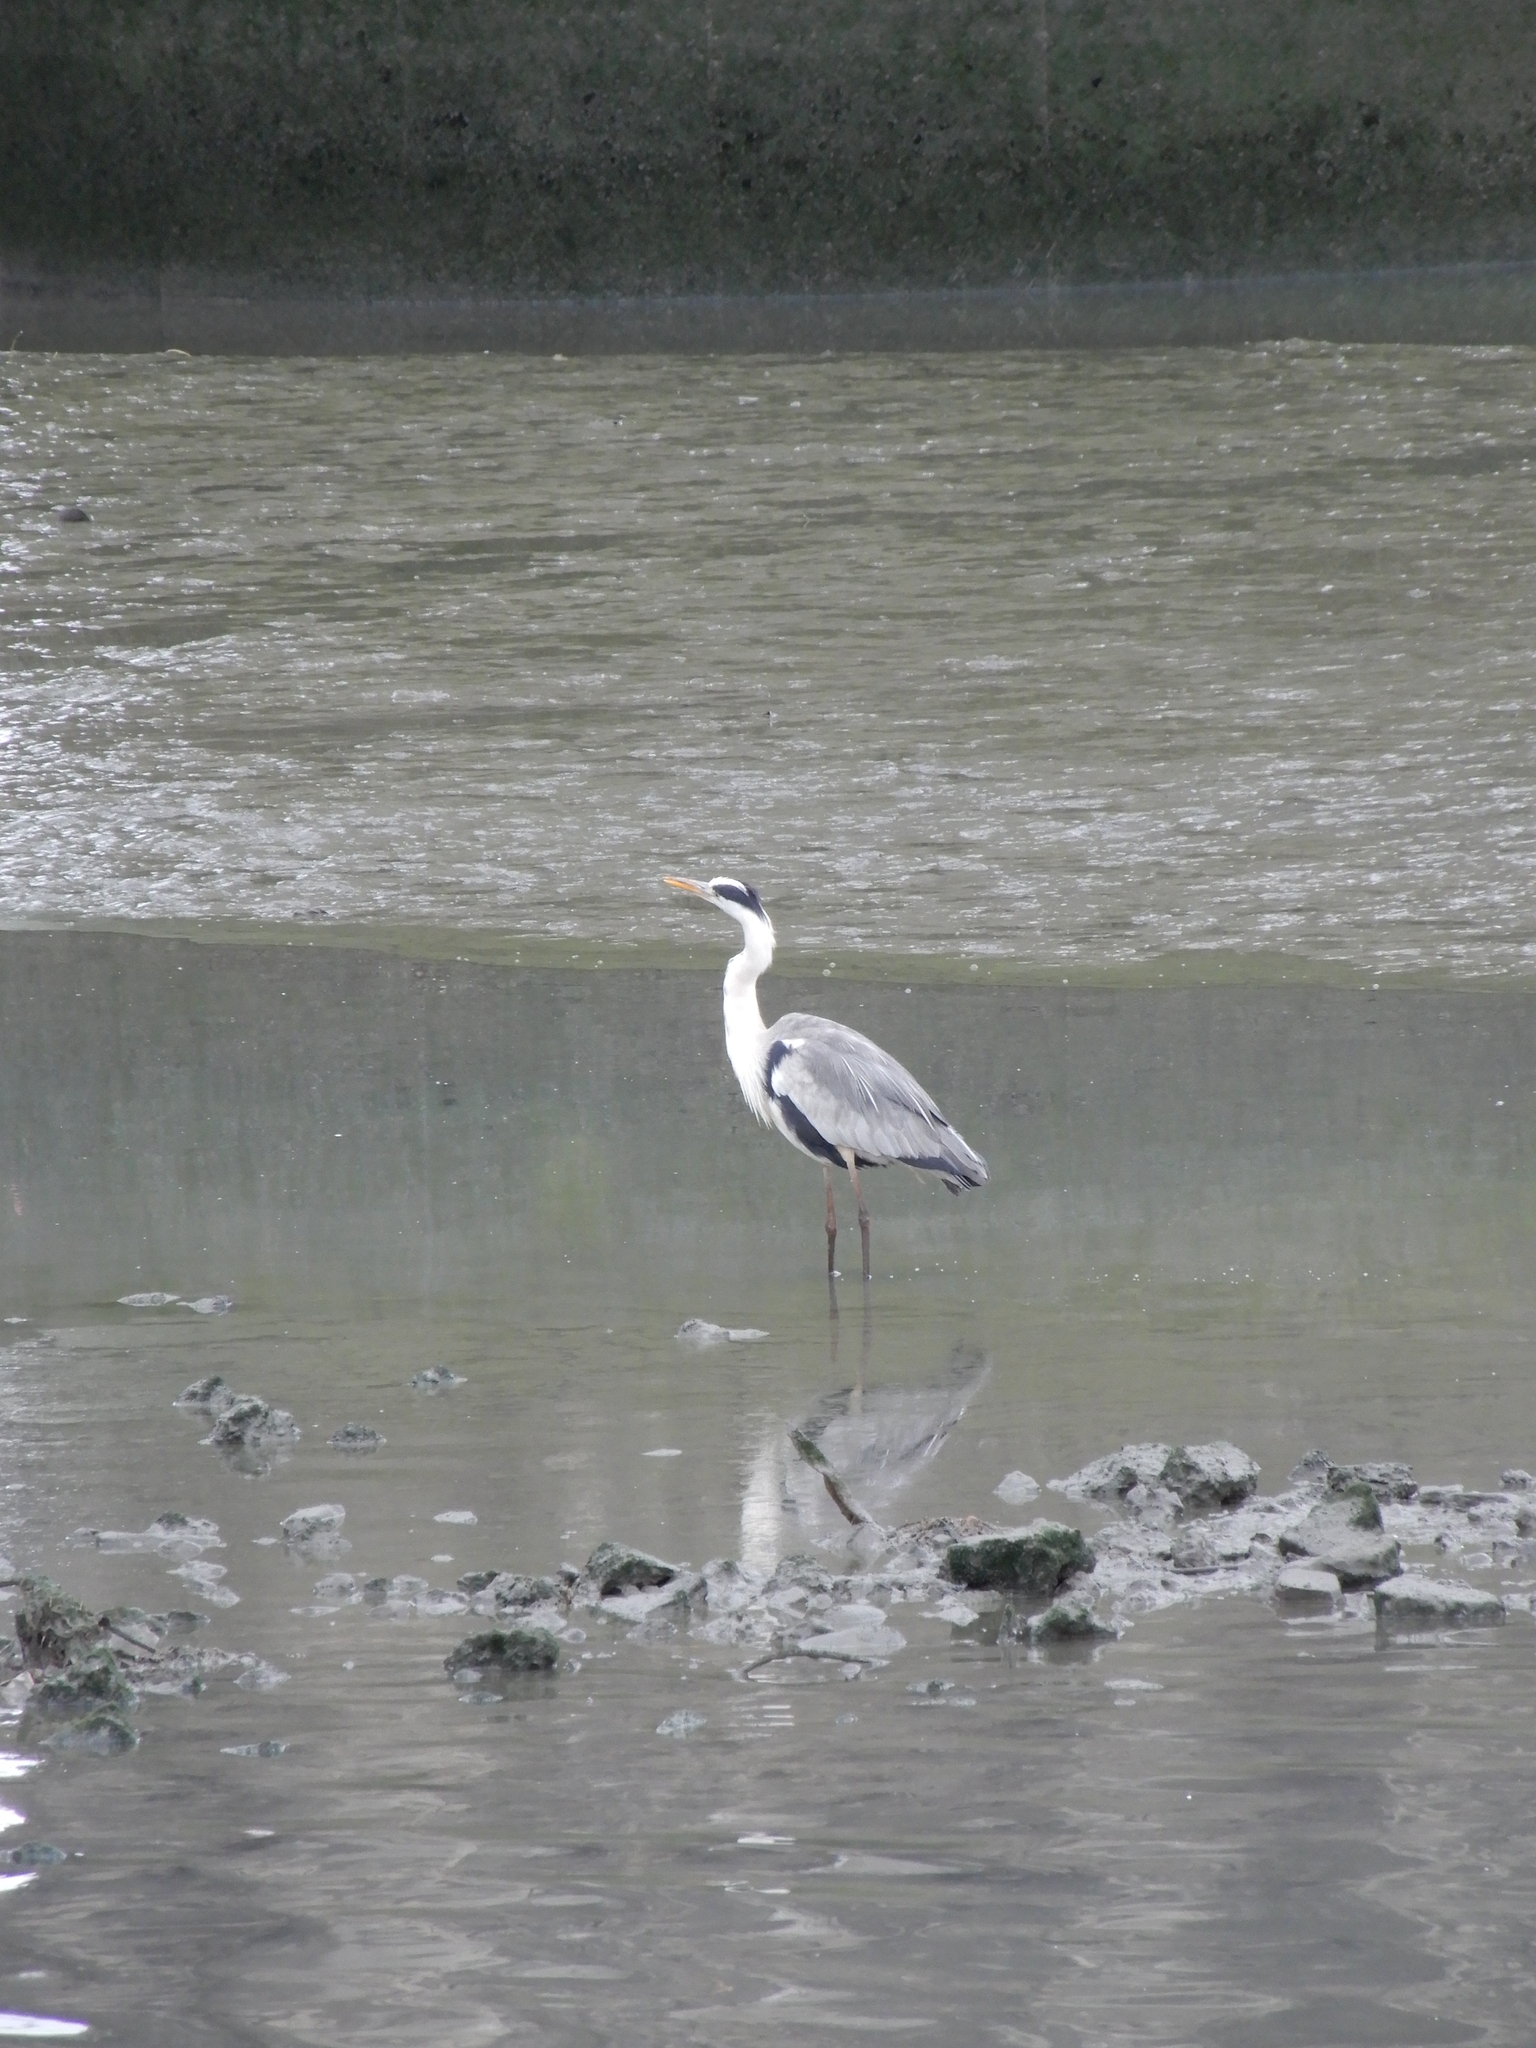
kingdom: Animalia
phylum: Chordata
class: Aves
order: Pelecaniformes
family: Ardeidae
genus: Ardea
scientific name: Ardea cinerea
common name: Grey heron
